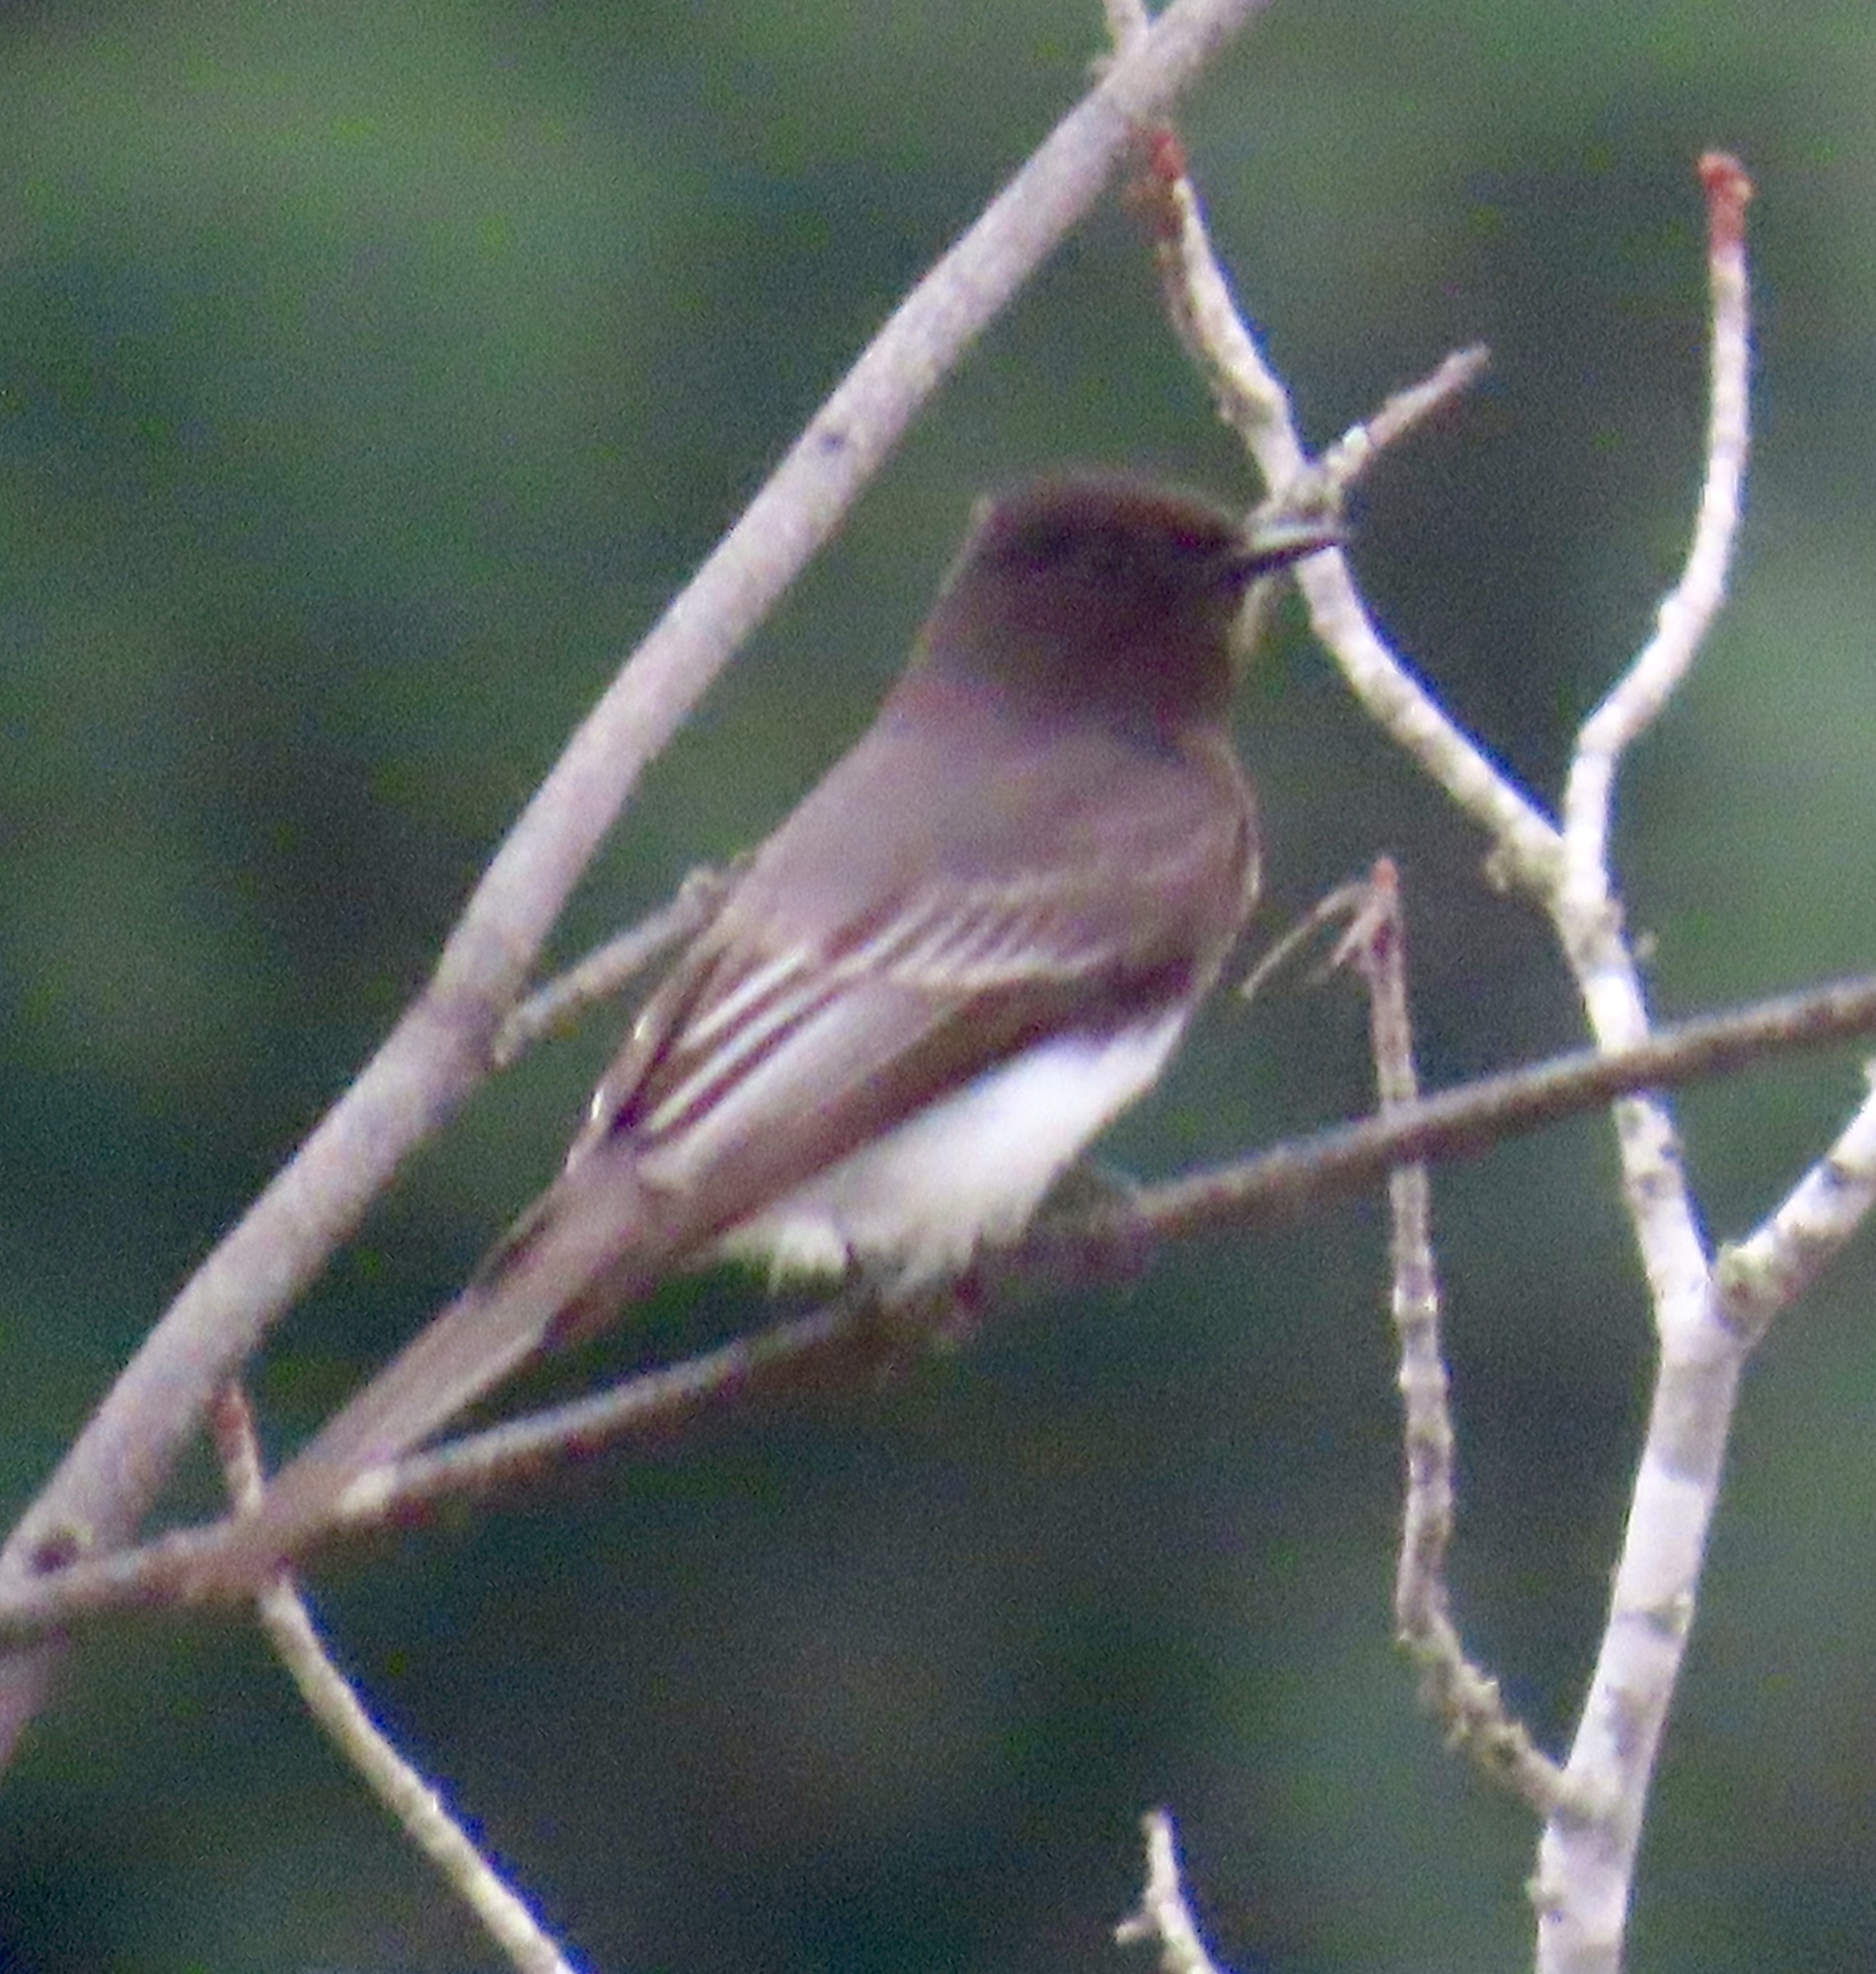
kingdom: Animalia
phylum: Chordata
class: Aves
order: Passeriformes
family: Tyrannidae
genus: Sayornis
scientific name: Sayornis nigricans
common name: Black phoebe
